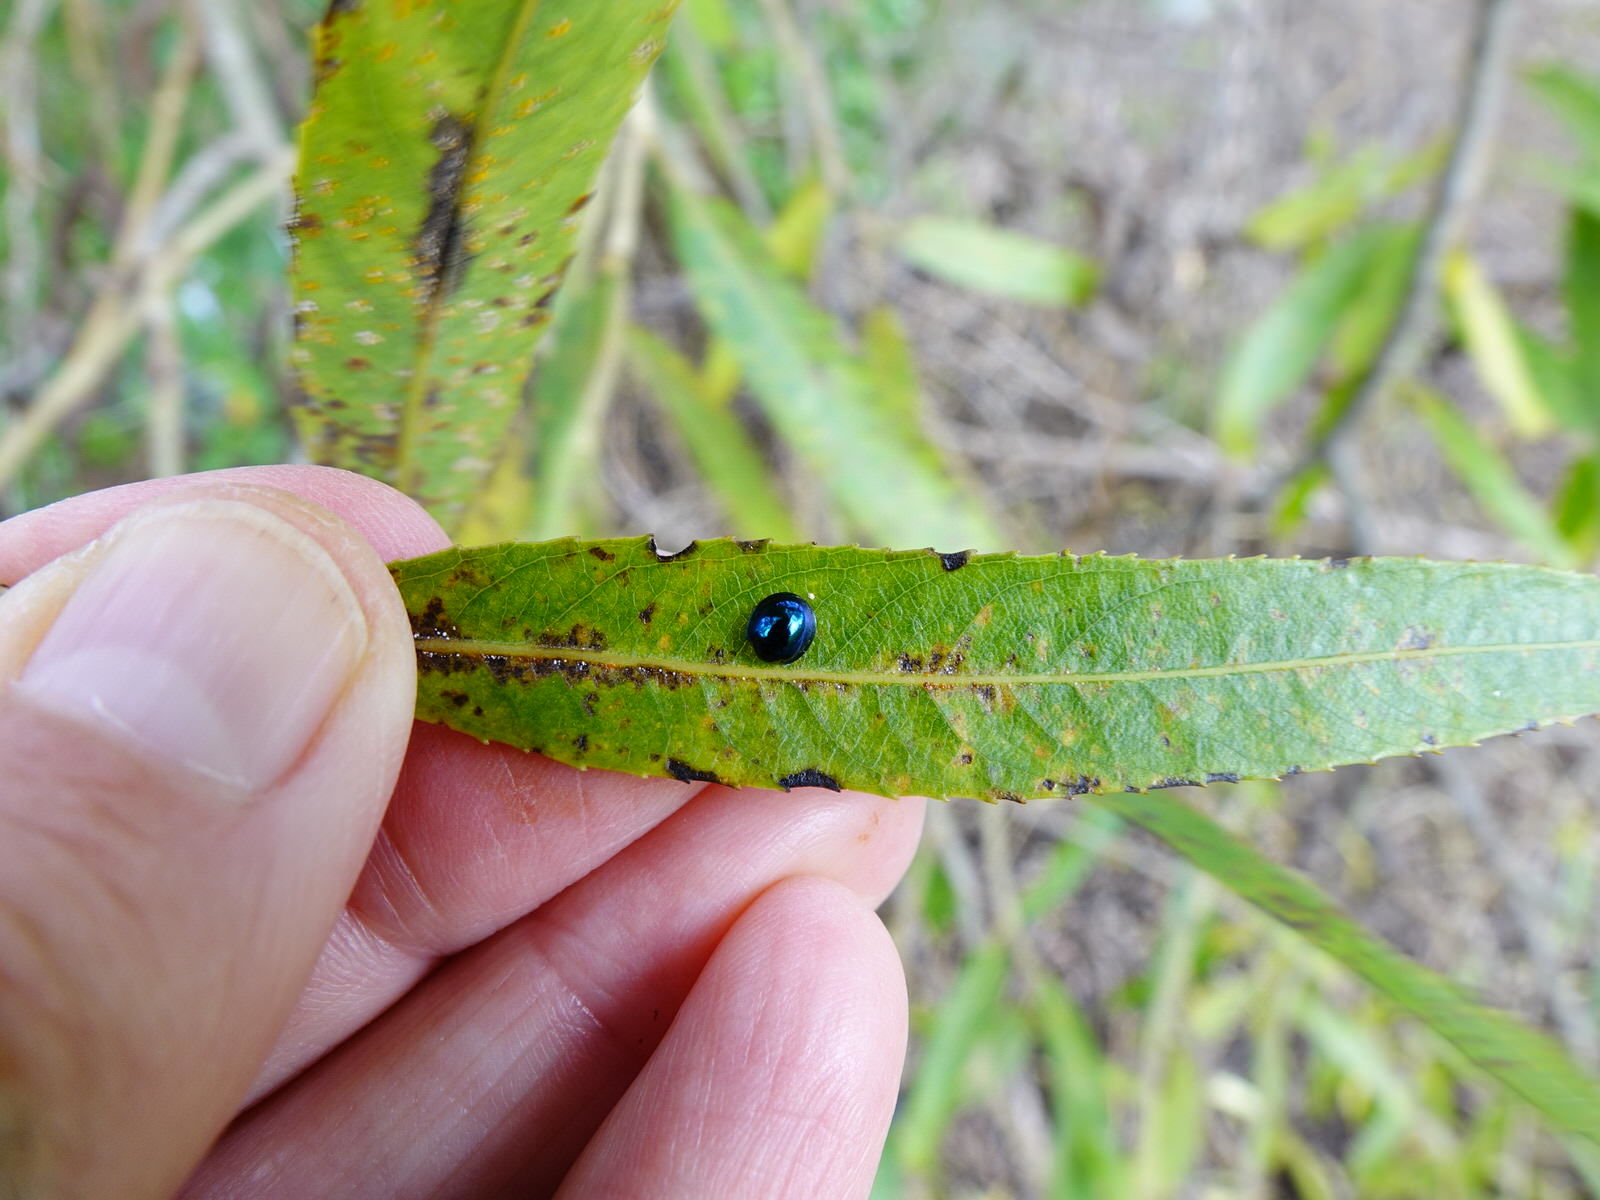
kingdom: Animalia
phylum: Arthropoda
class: Insecta
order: Coleoptera
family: Coccinellidae
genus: Halmus
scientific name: Halmus chalybeus
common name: Steel blue ladybird beetle
